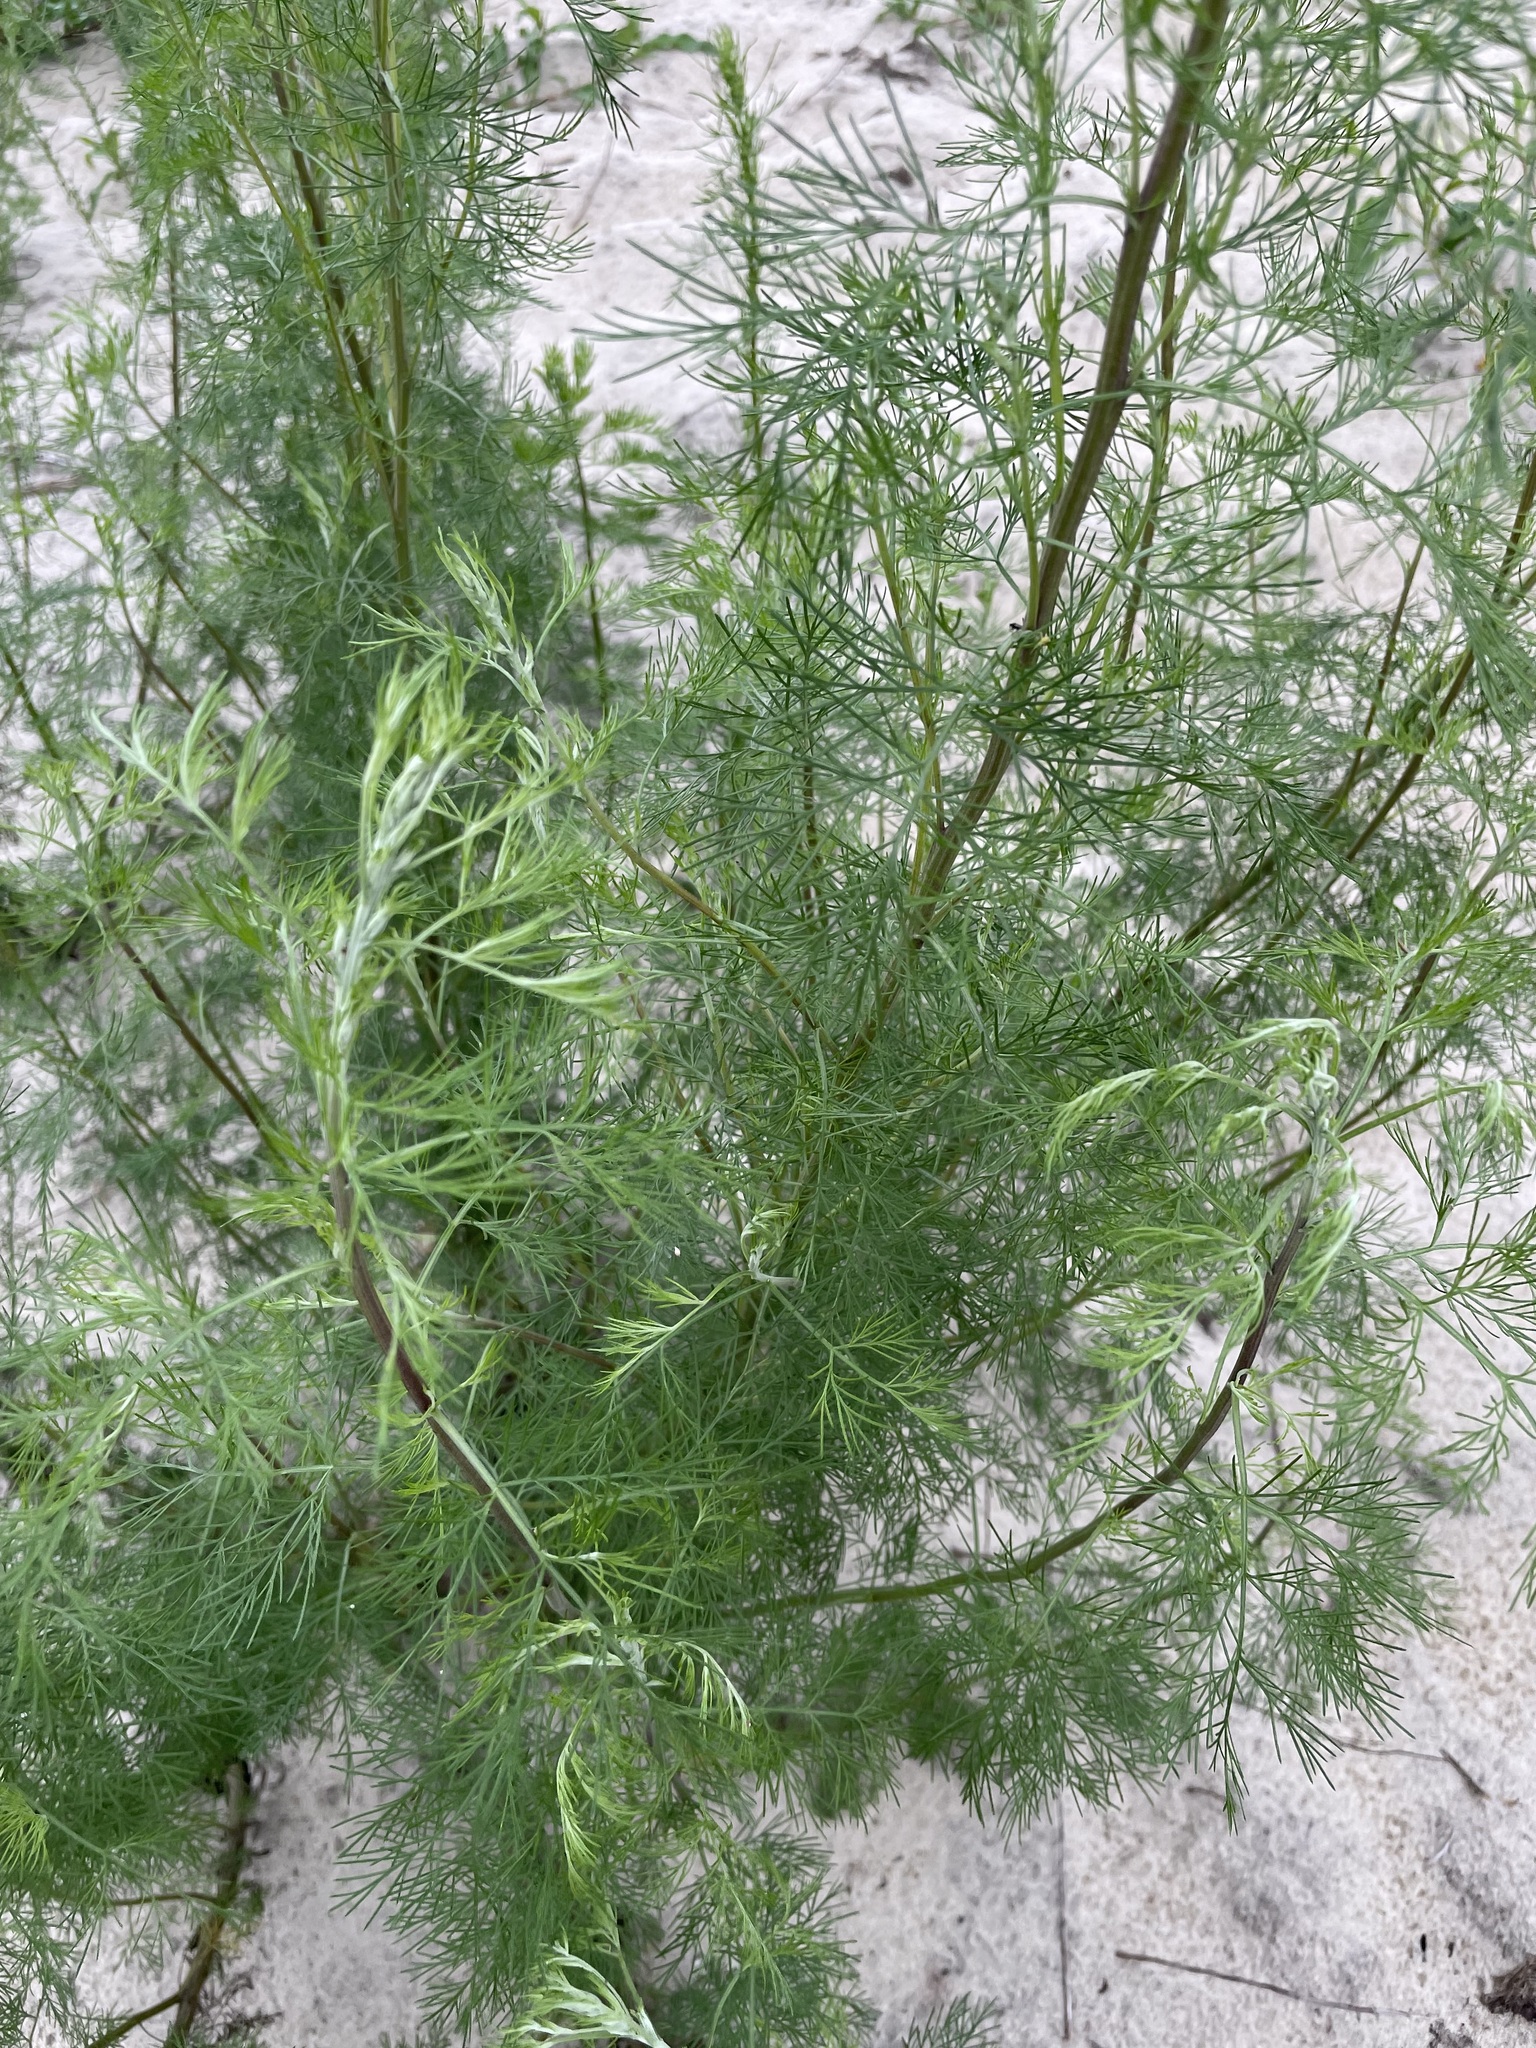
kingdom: Plantae
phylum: Tracheophyta
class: Magnoliopsida
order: Asterales
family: Asteraceae
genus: Artemisia
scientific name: Artemisia abrotanum
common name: Southernwood
